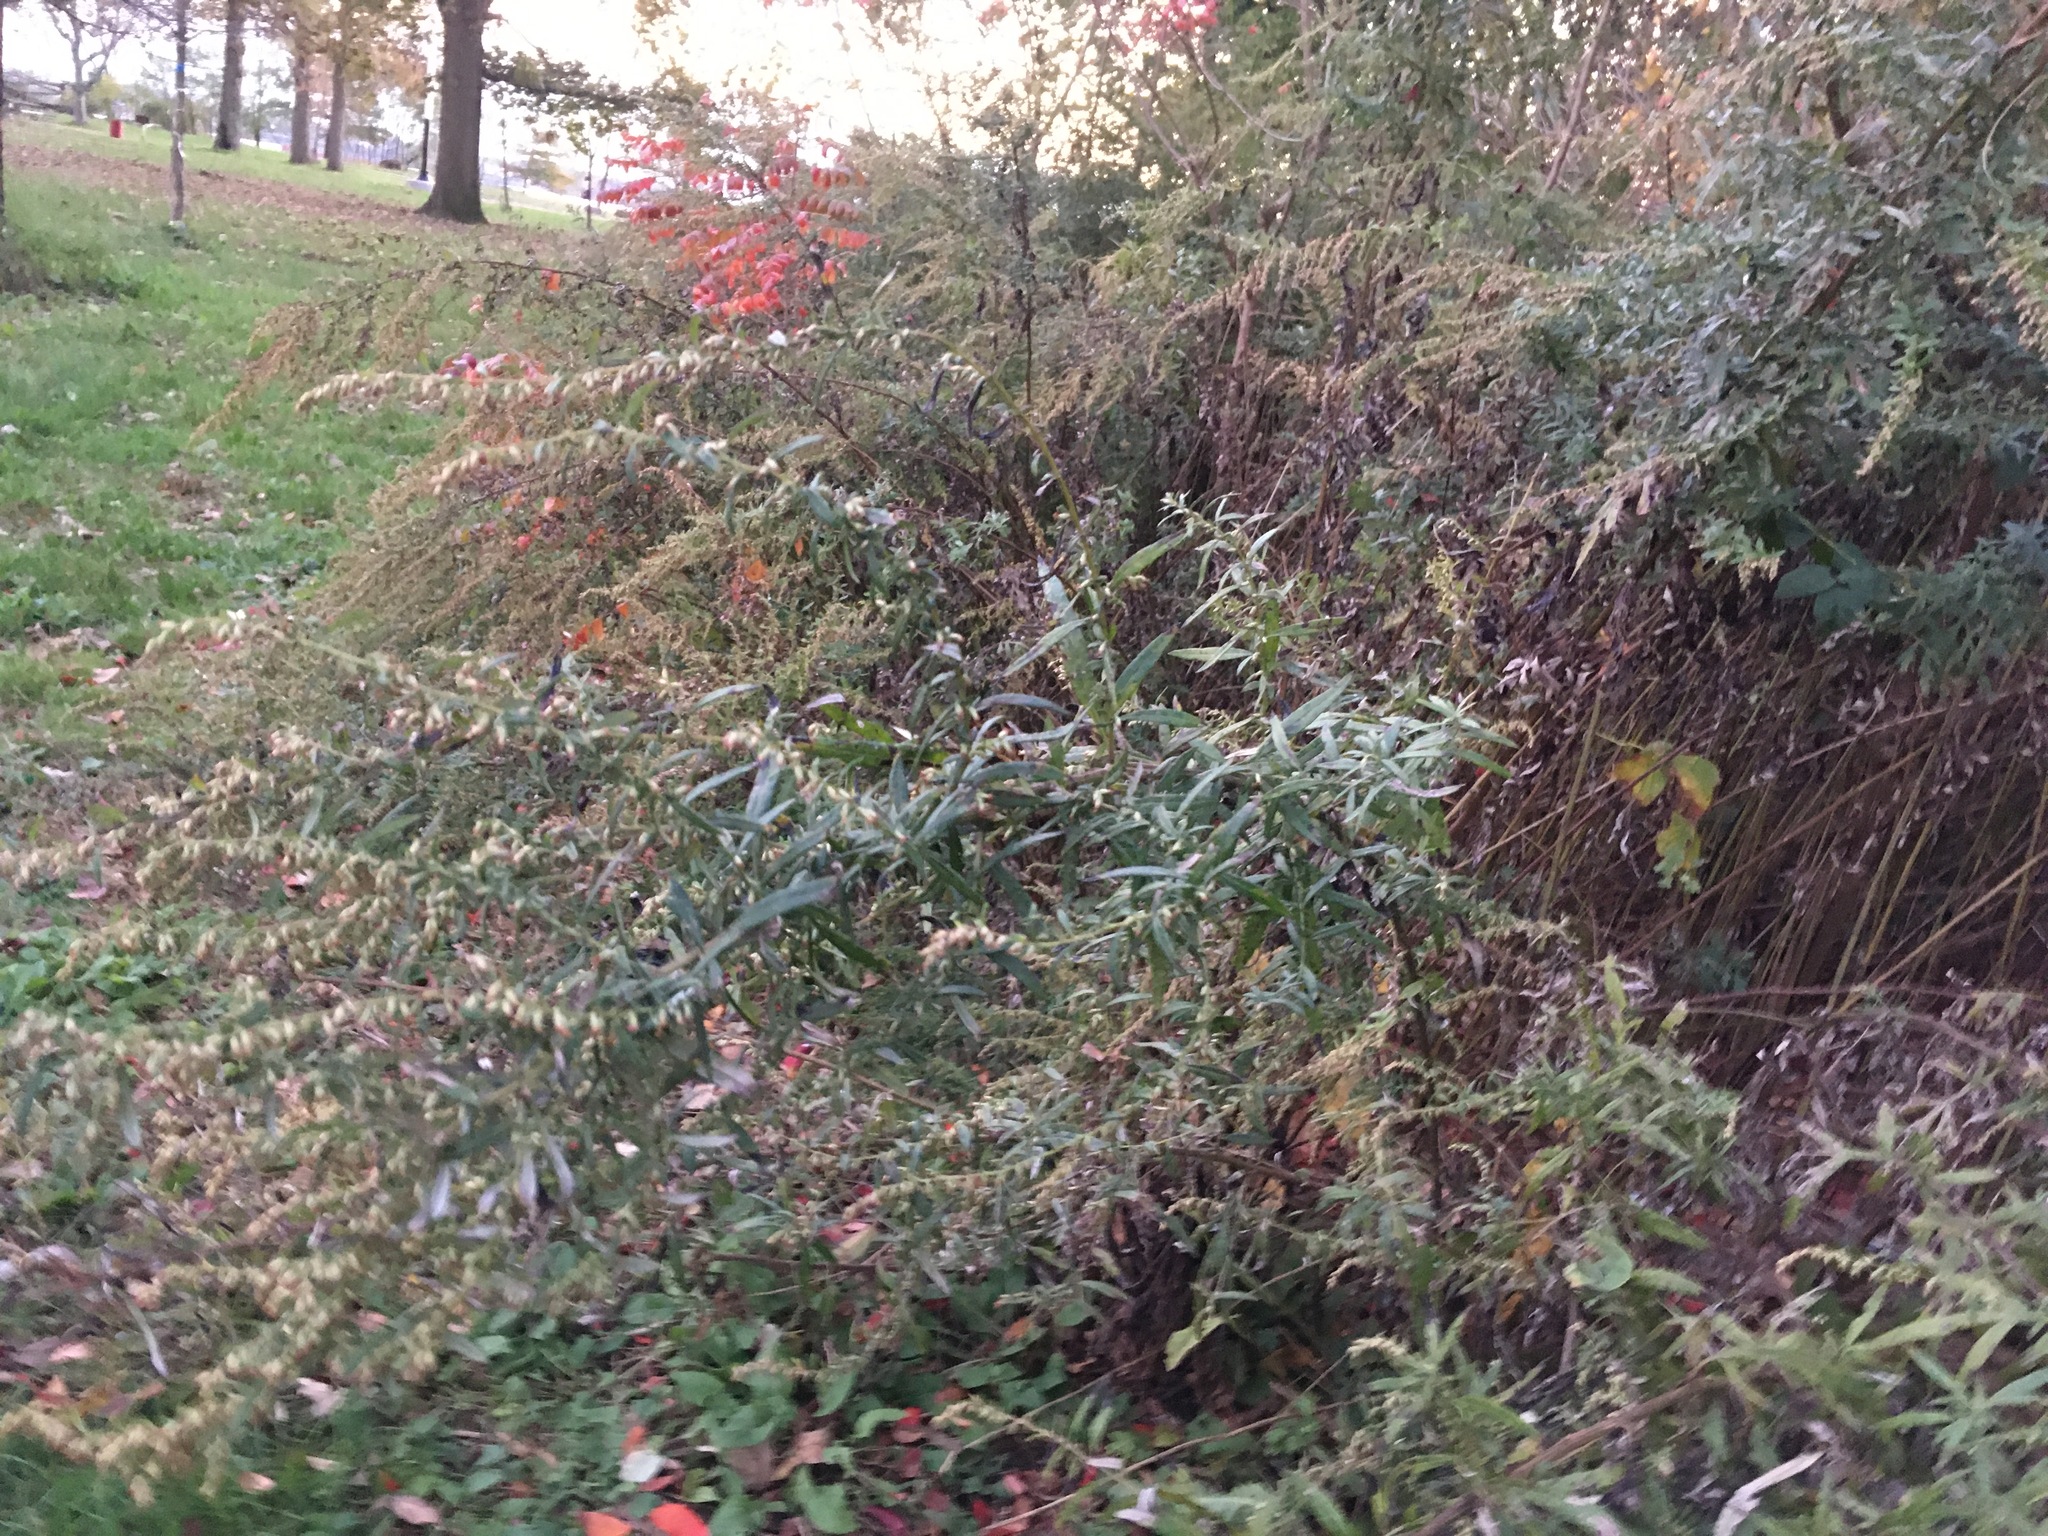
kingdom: Plantae
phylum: Tracheophyta
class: Magnoliopsida
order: Asterales
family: Asteraceae
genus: Artemisia
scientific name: Artemisia vulgaris
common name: Mugwort
